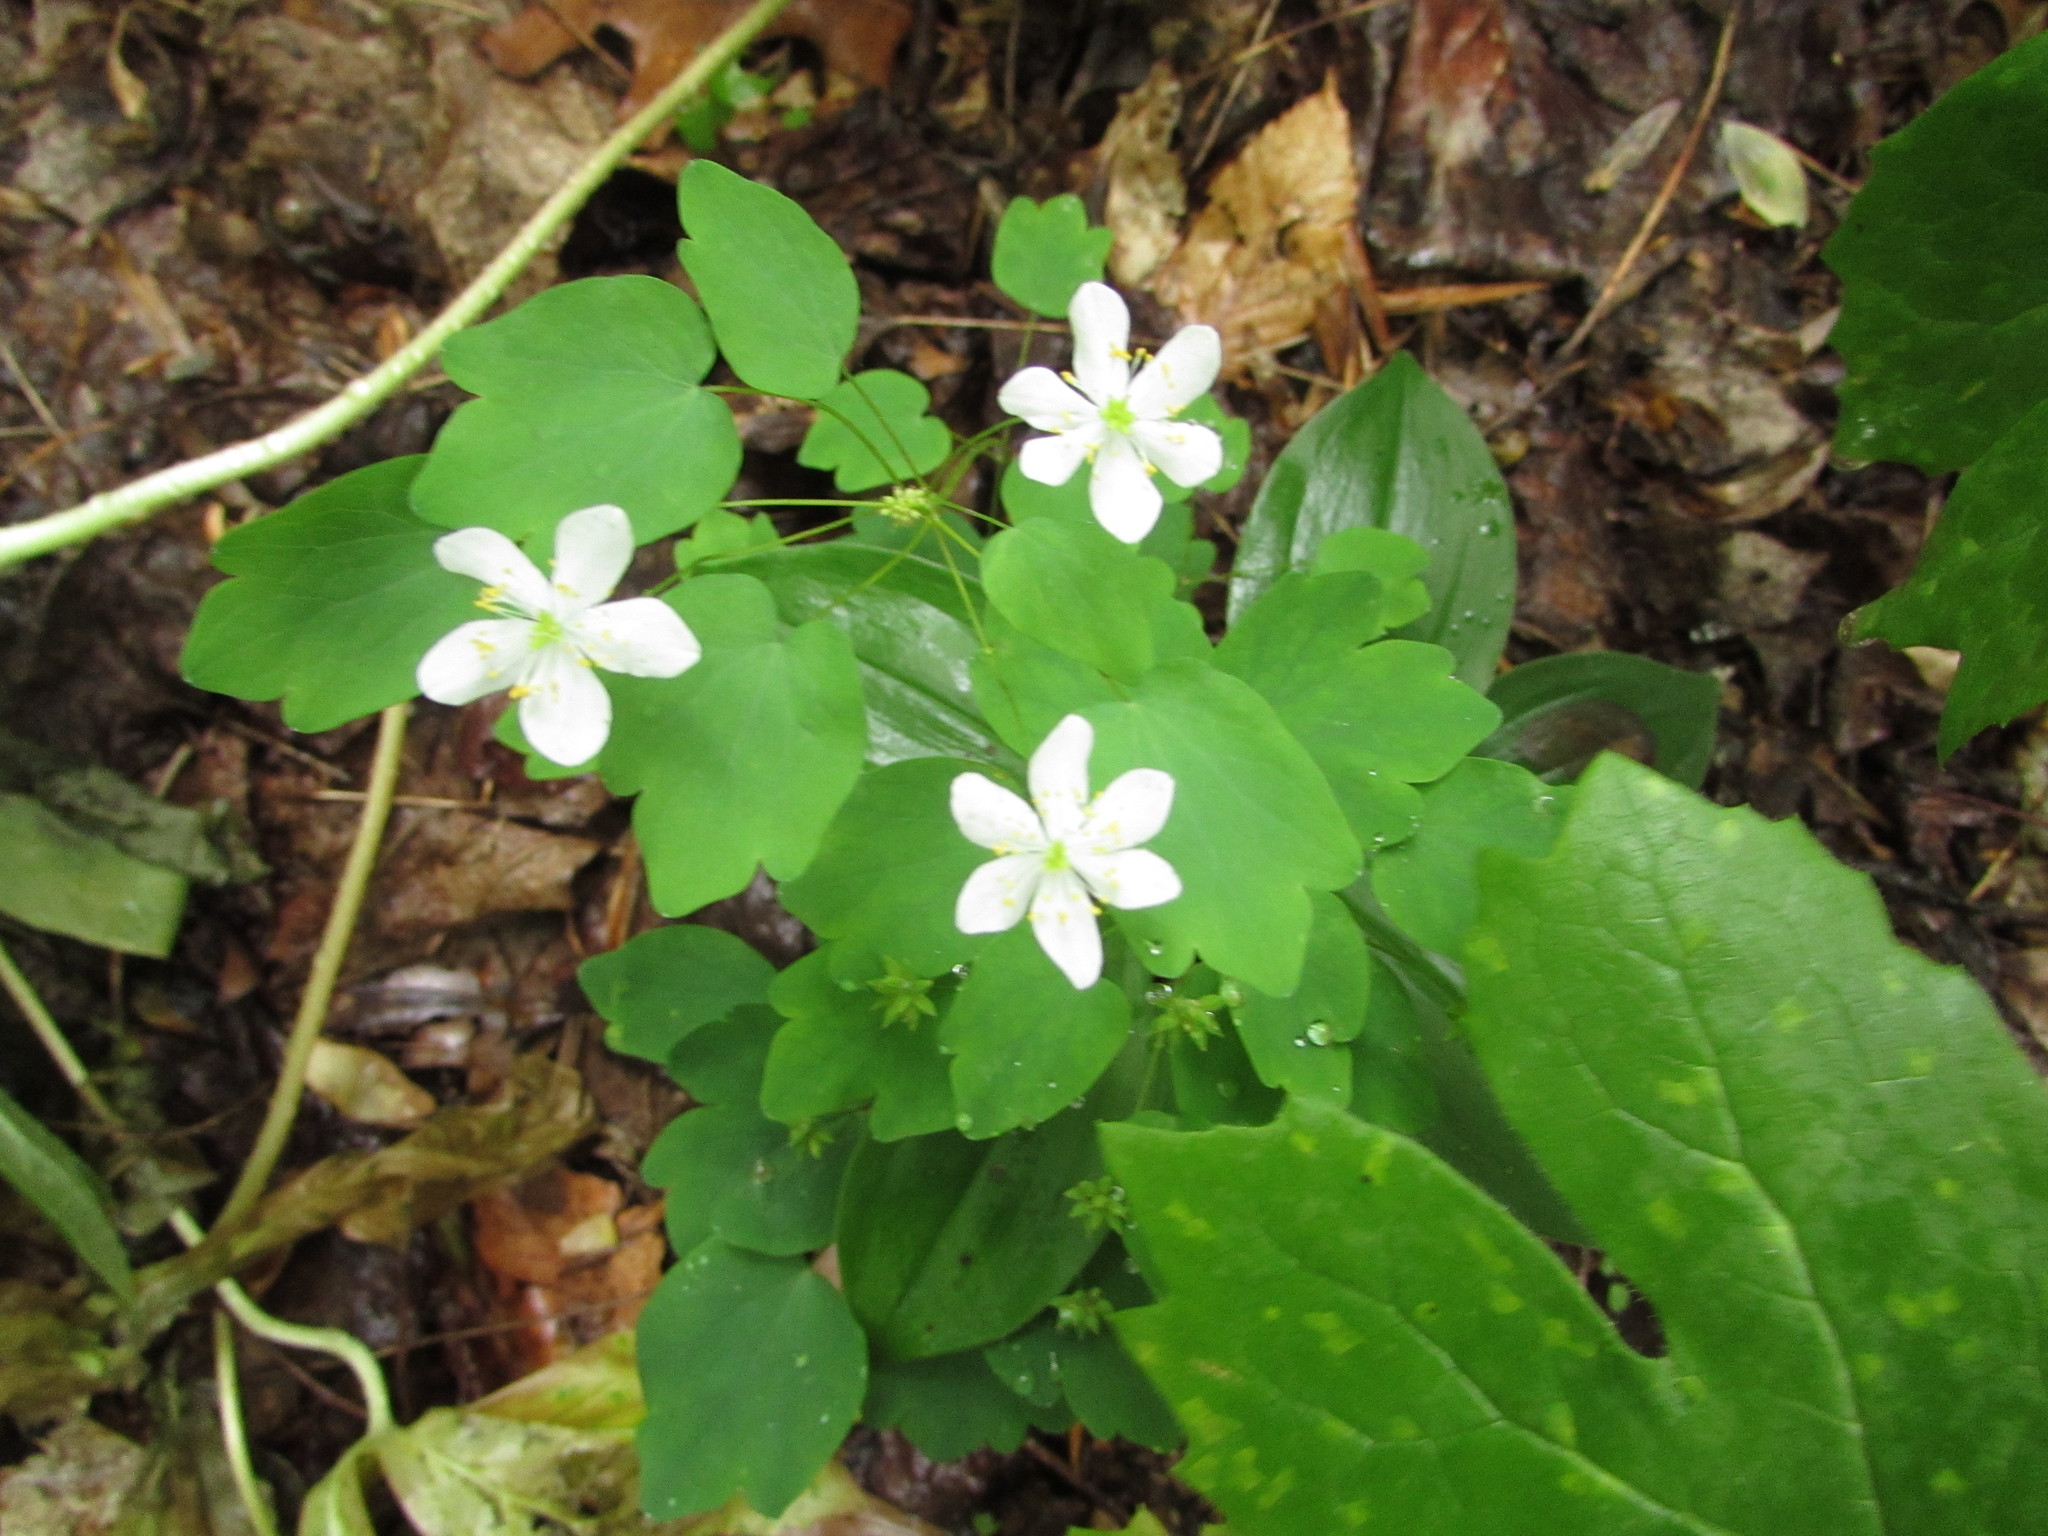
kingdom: Plantae
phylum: Tracheophyta
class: Magnoliopsida
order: Ranunculales
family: Ranunculaceae
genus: Thalictrum
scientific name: Thalictrum thalictroides
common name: Rue-anemone
